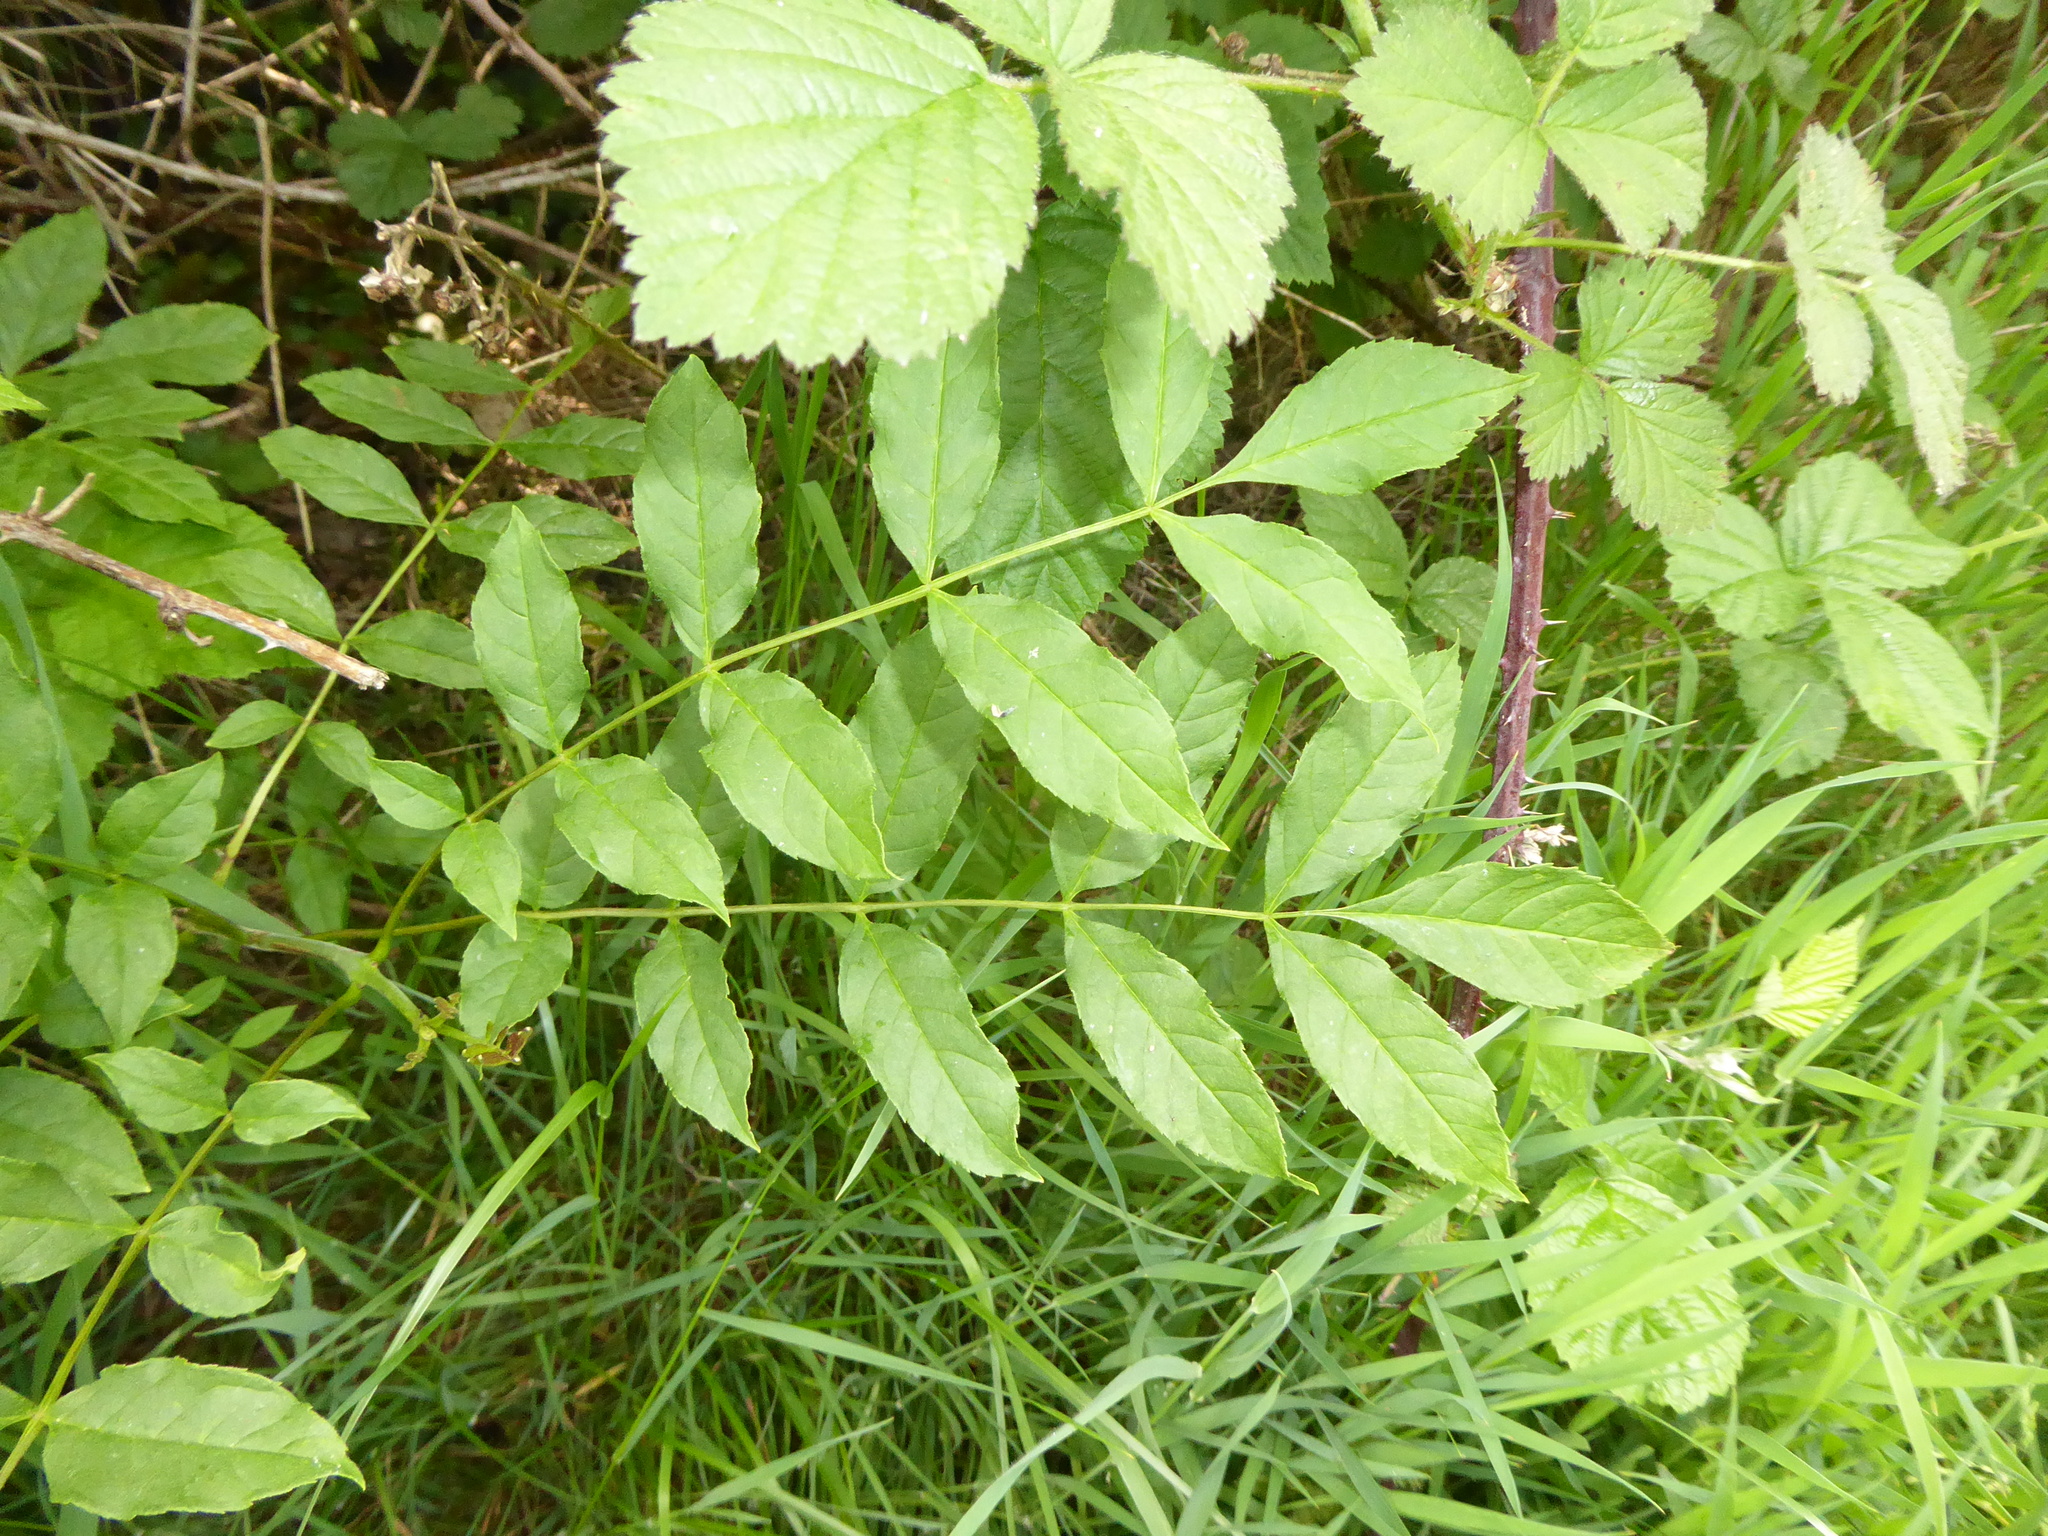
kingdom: Plantae
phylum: Tracheophyta
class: Magnoliopsida
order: Lamiales
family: Oleaceae
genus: Fraxinus
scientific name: Fraxinus excelsior
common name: European ash
